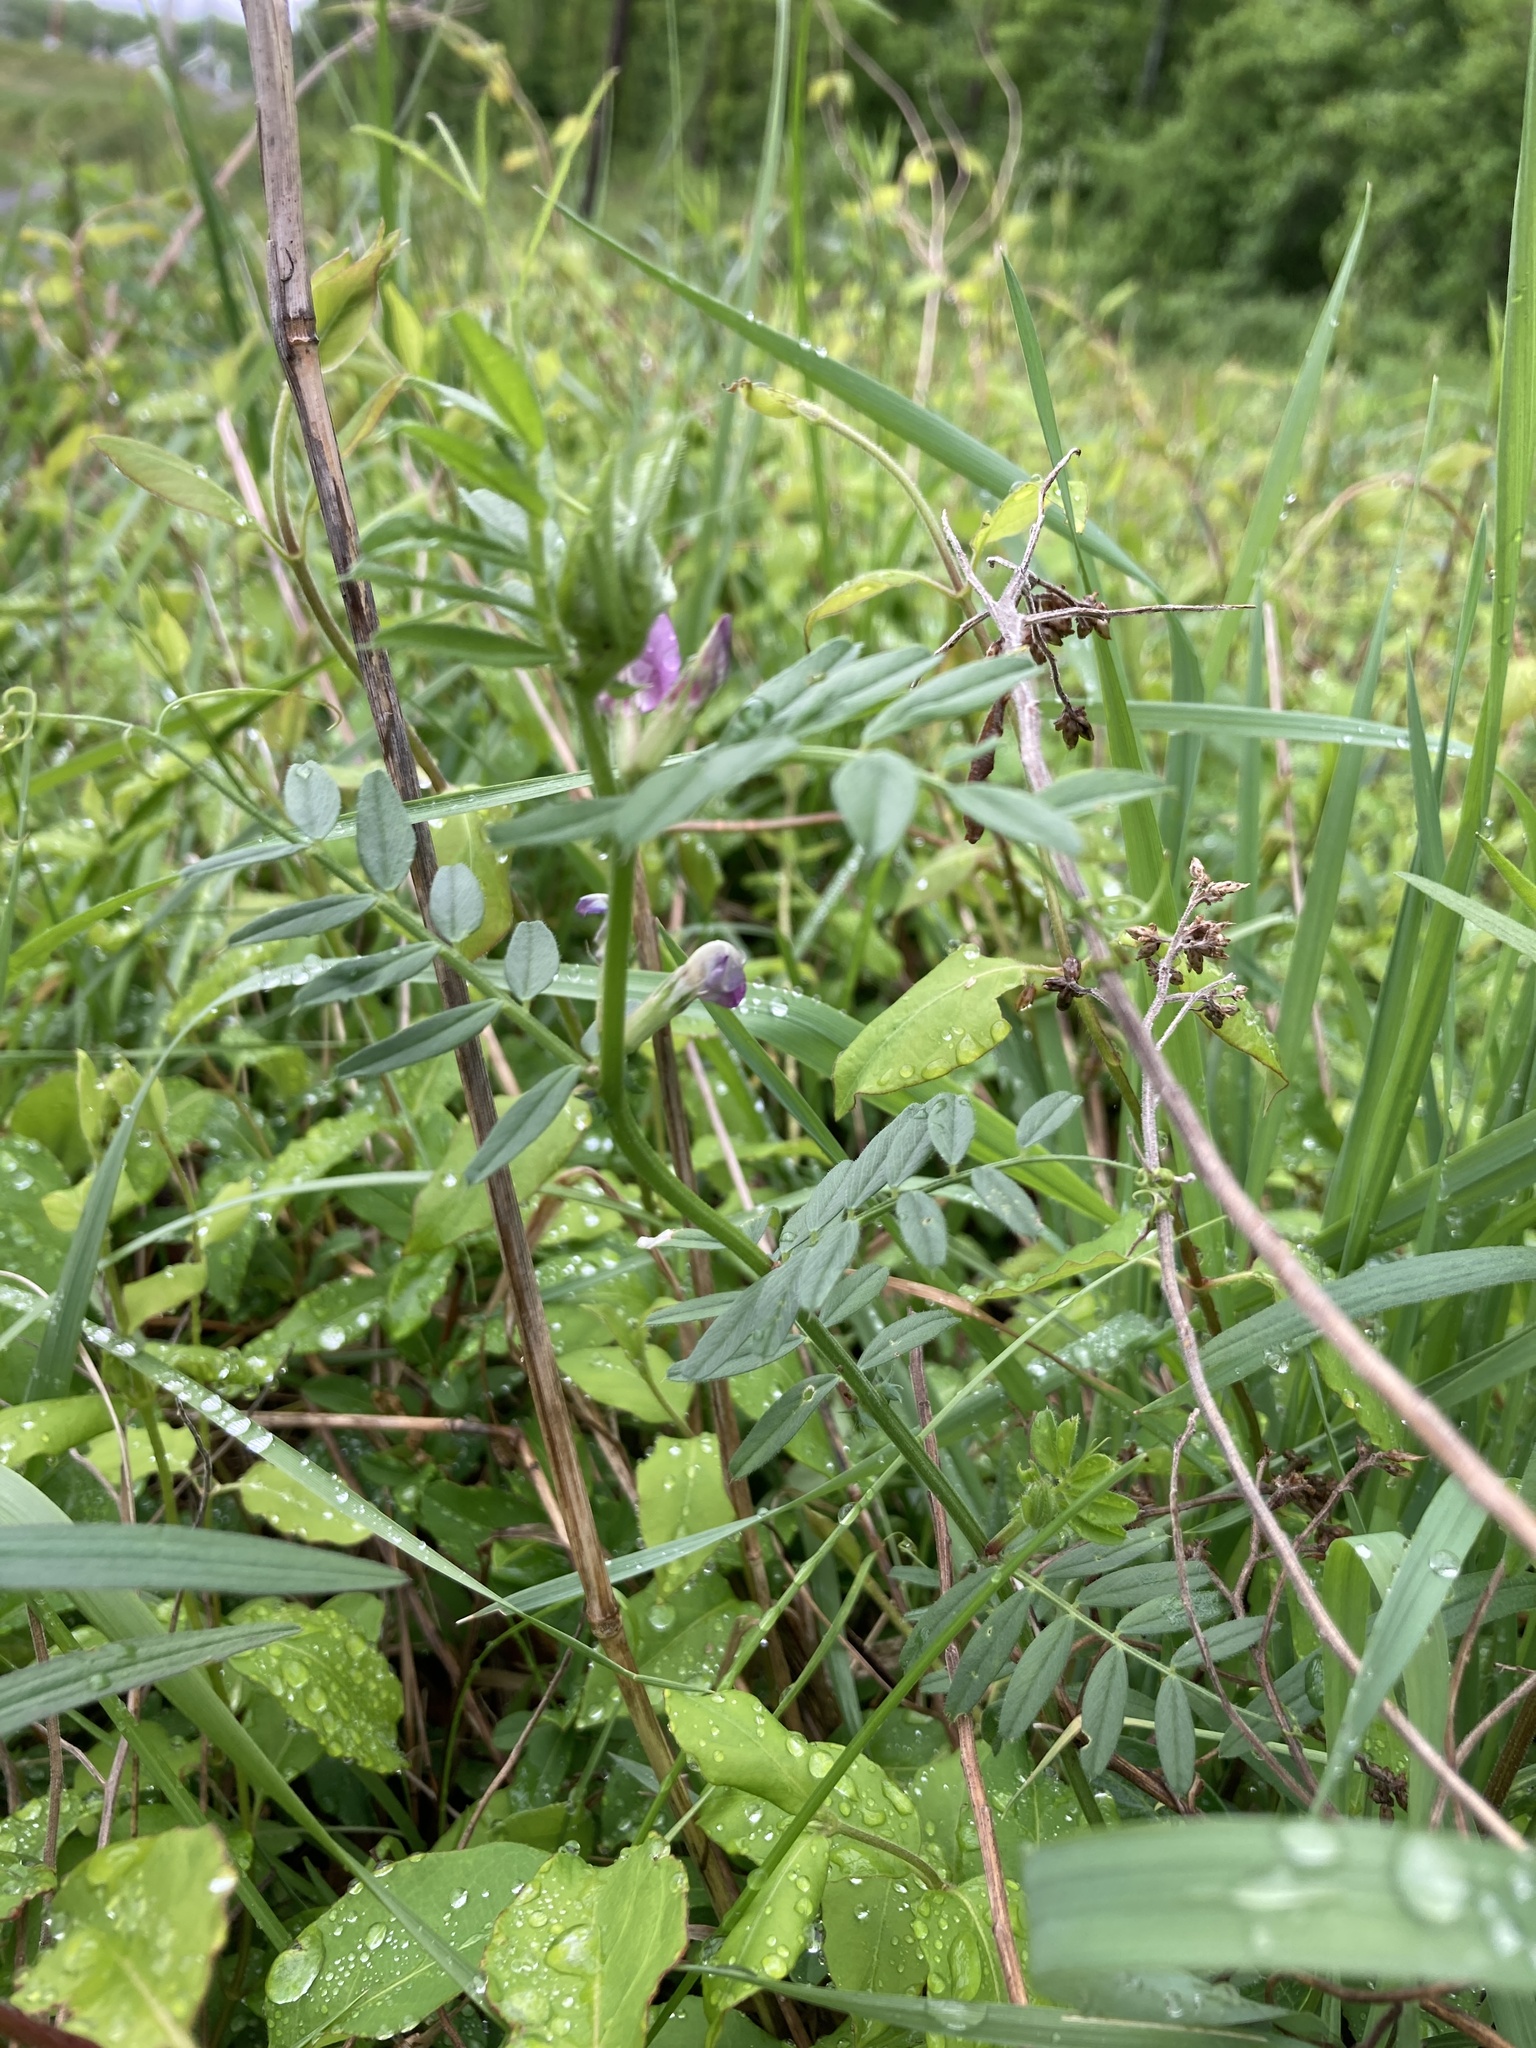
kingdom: Plantae
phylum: Tracheophyta
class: Magnoliopsida
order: Fabales
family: Fabaceae
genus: Vicia
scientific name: Vicia sativa
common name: Garden vetch
